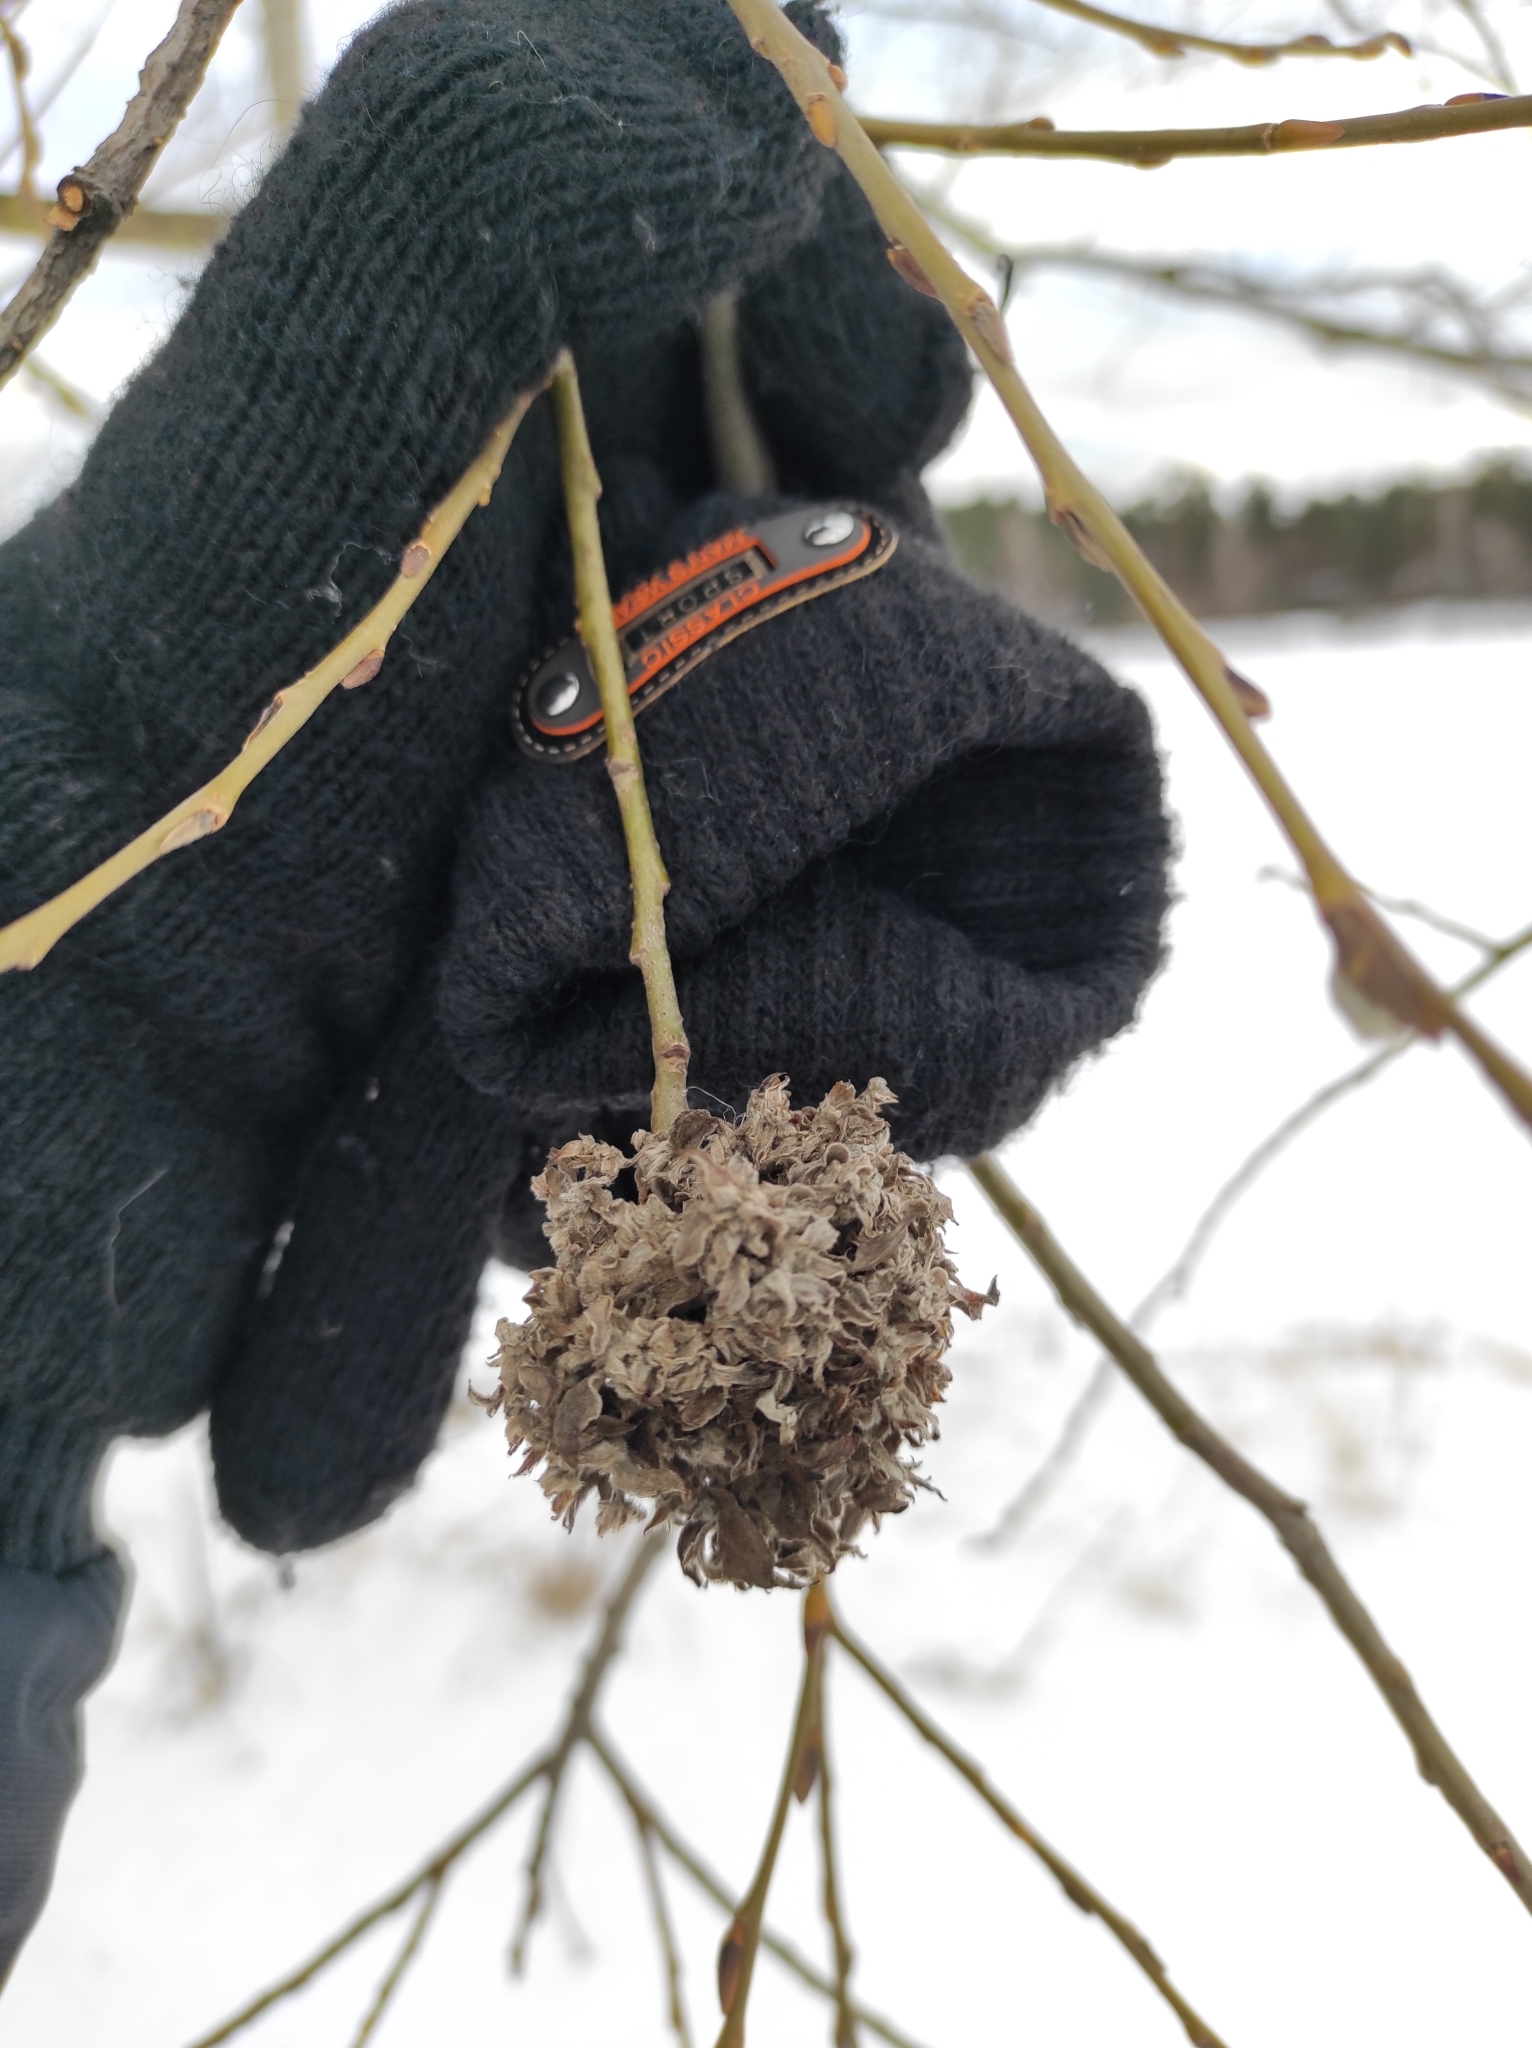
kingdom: Animalia
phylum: Arthropoda
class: Arachnida
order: Trombidiformes
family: Eriophyidae
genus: Stenacis
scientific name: Stenacis triradiatus
